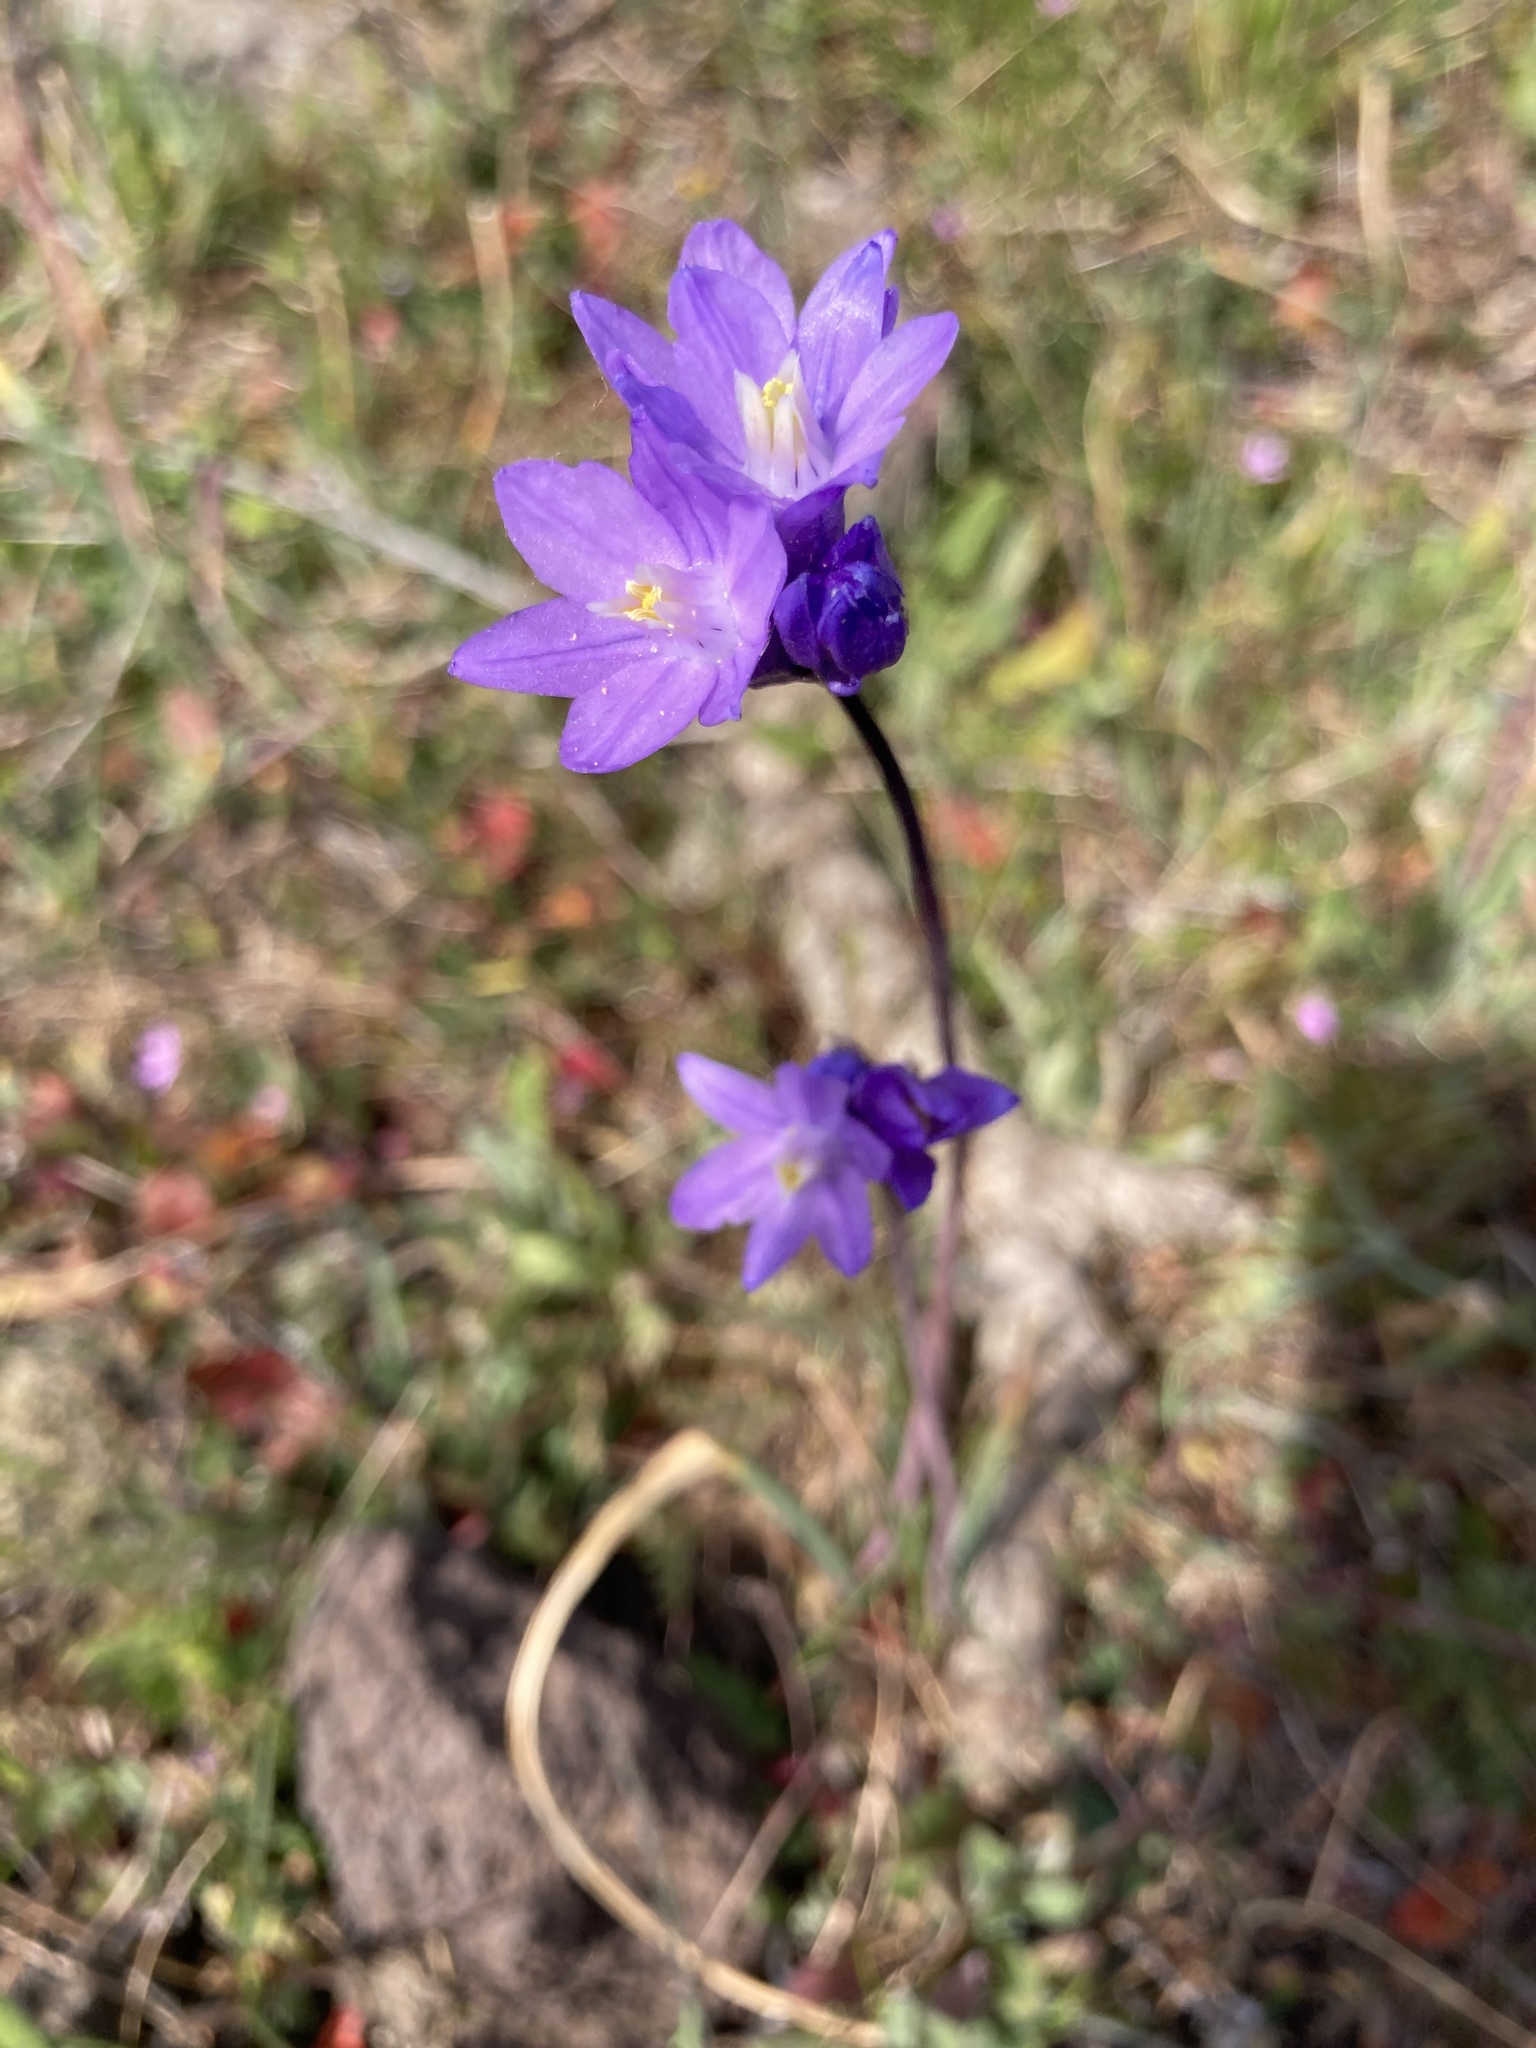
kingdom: Plantae
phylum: Tracheophyta
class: Liliopsida
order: Asparagales
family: Asparagaceae
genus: Dipterostemon
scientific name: Dipterostemon capitatus
